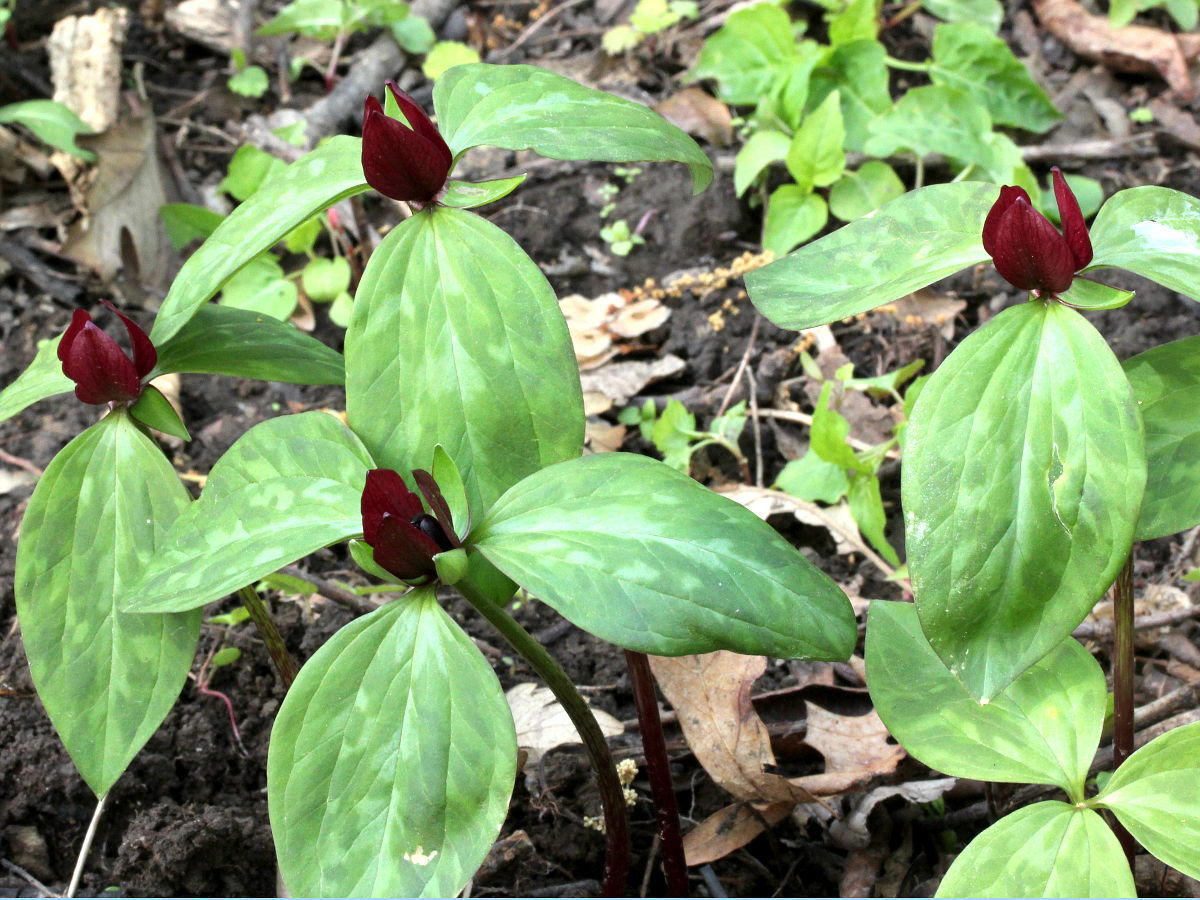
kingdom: Plantae
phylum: Tracheophyta
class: Liliopsida
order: Liliales
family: Melanthiaceae
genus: Trillium
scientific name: Trillium recurvatum
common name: Bloody butcher
